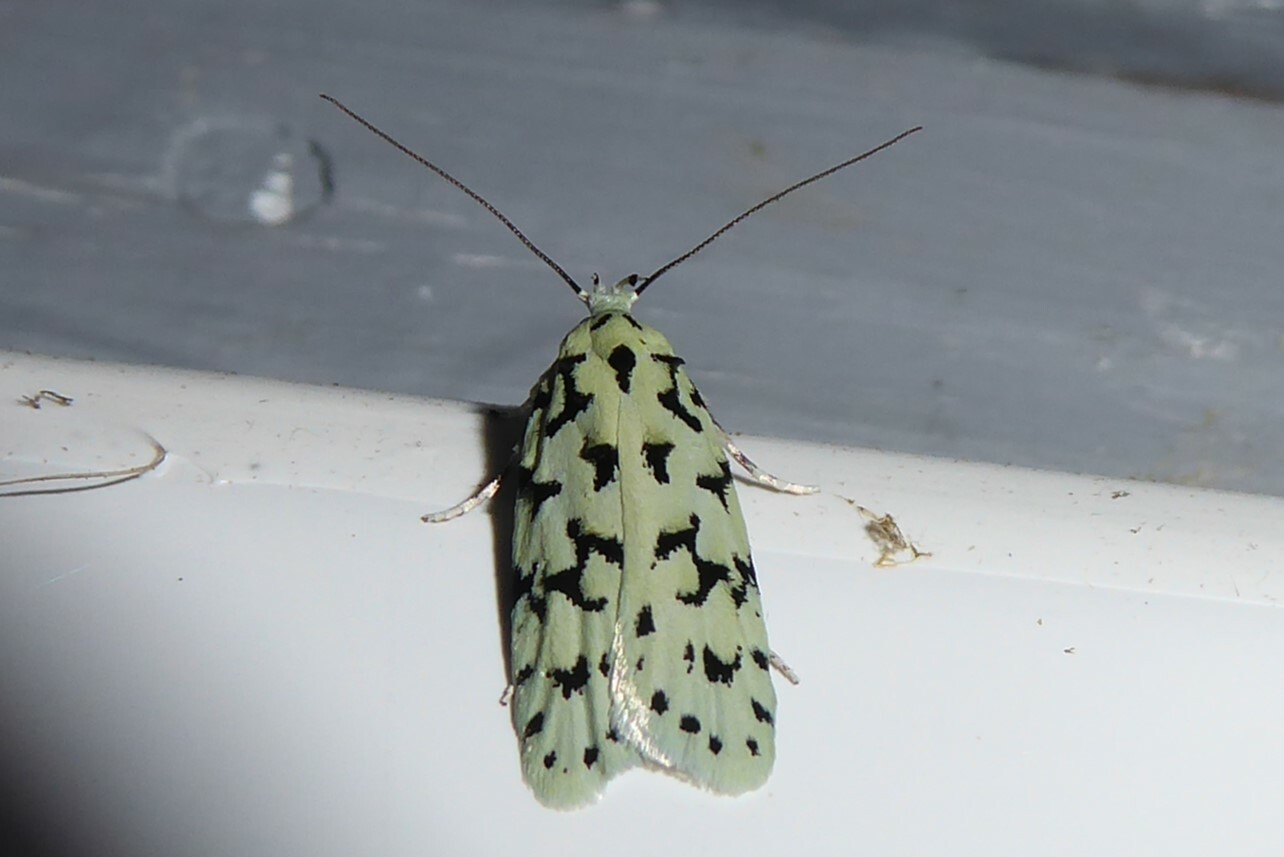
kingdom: Animalia
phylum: Arthropoda
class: Insecta
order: Lepidoptera
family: Oecophoridae
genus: Izatha
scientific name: Izatha huttoni
